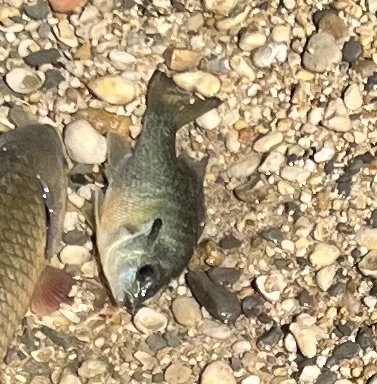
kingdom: Animalia
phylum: Chordata
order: Perciformes
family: Centrarchidae
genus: Lepomis
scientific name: Lepomis auritus
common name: Redbreast sunfish
